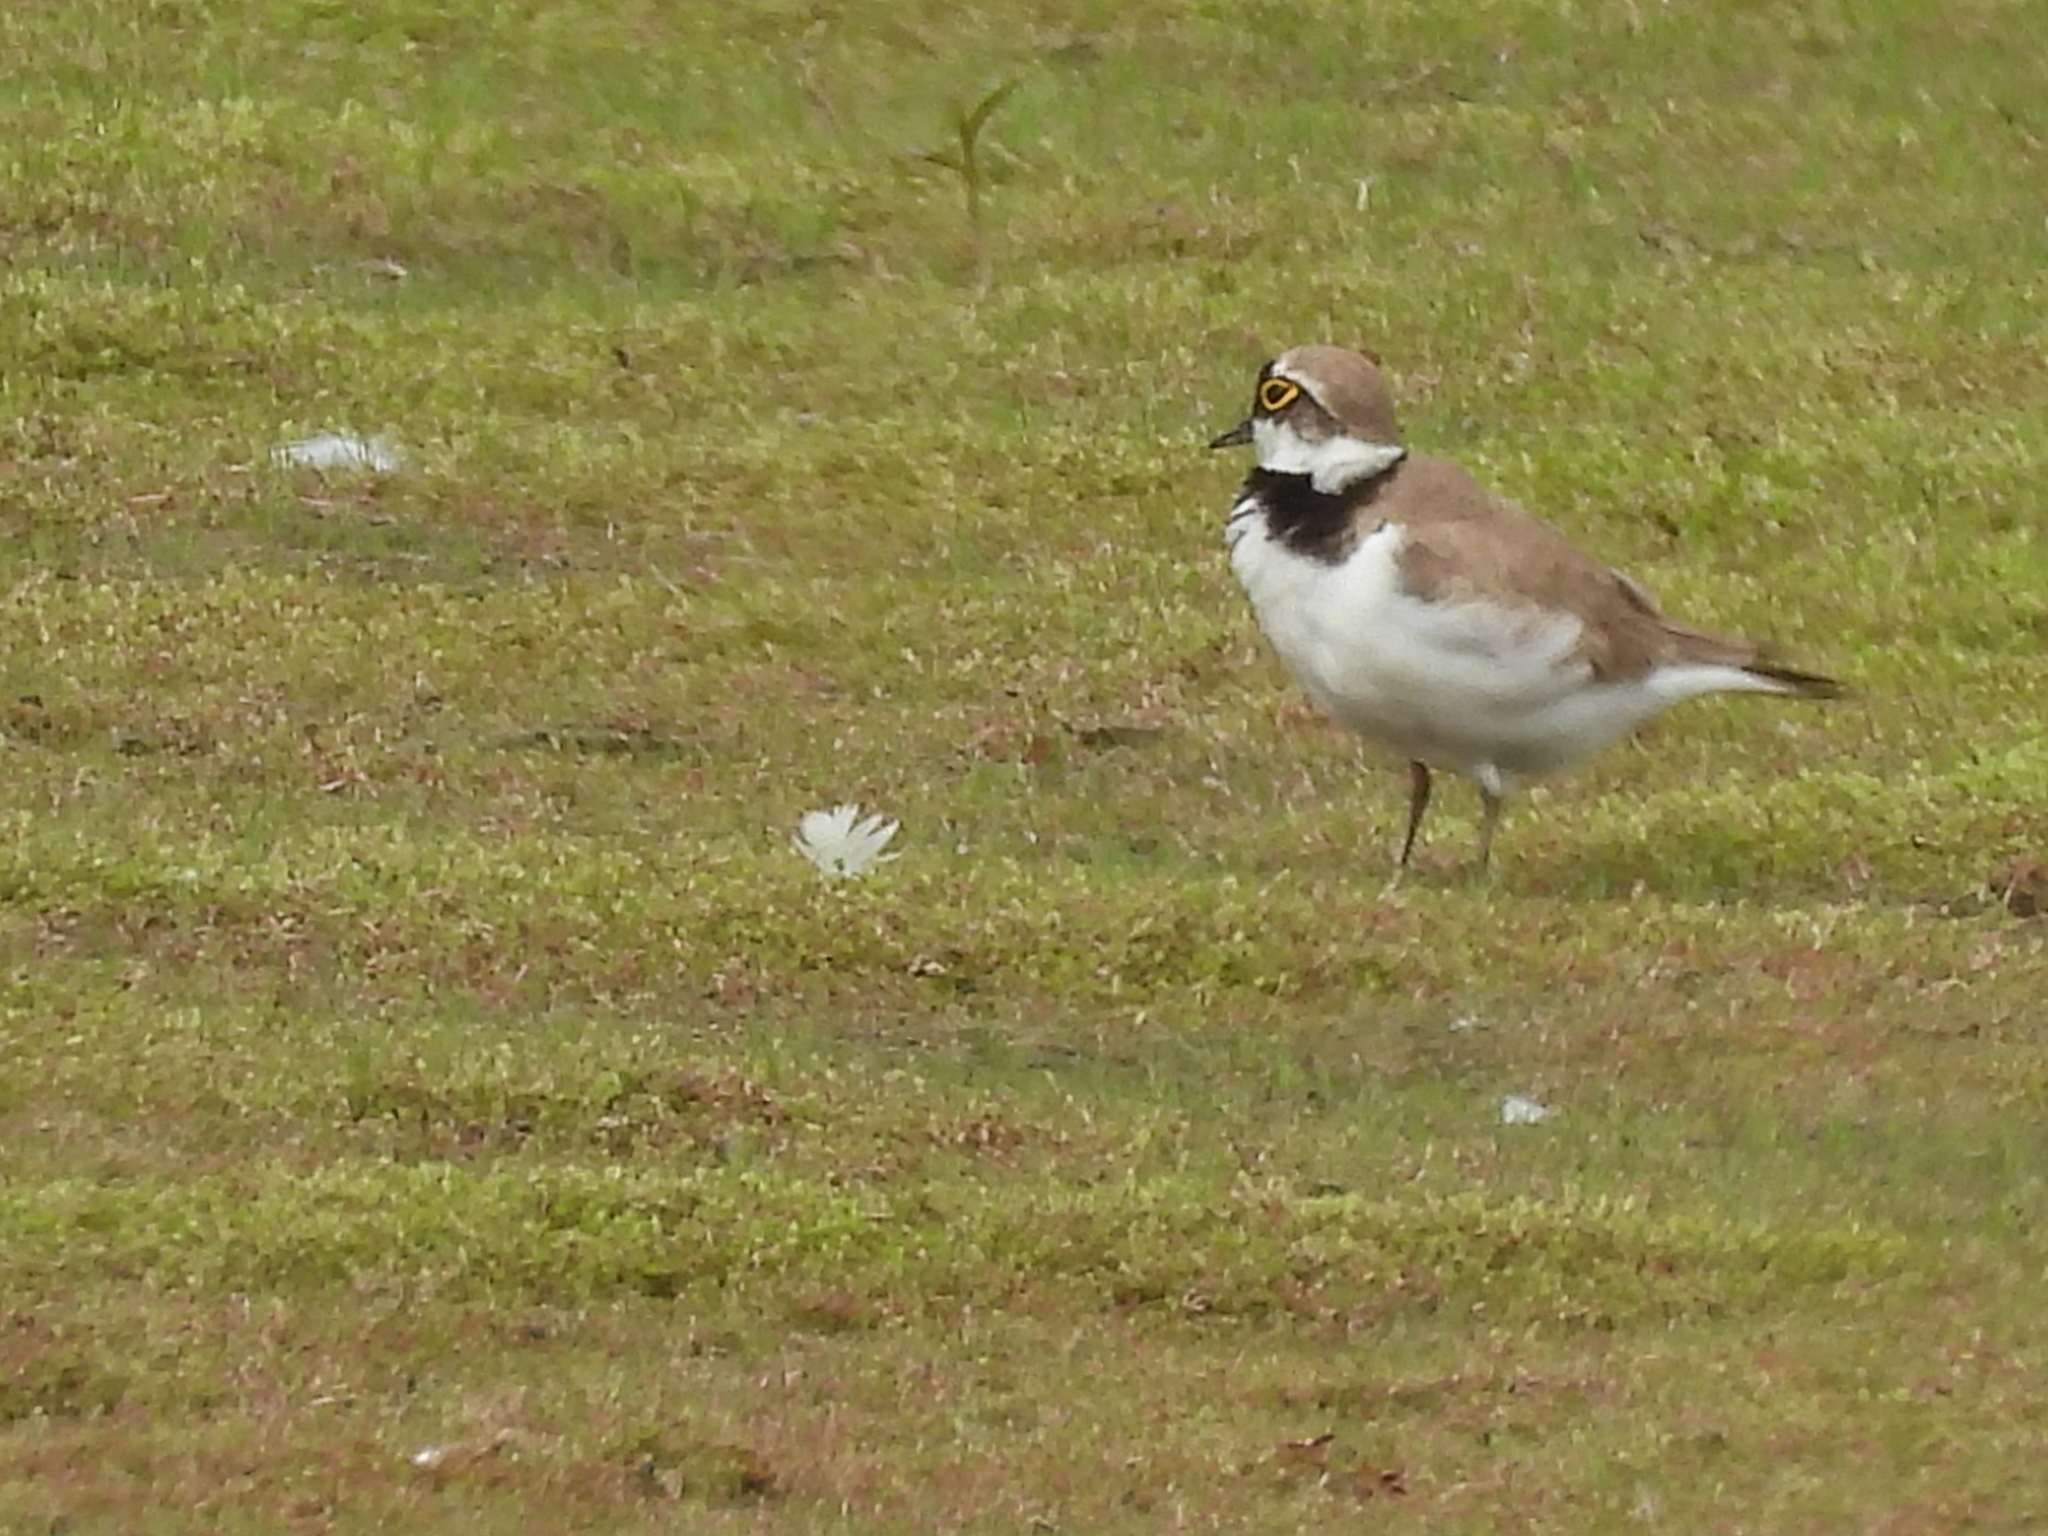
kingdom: Animalia
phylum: Chordata
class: Aves
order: Charadriiformes
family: Charadriidae
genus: Charadrius
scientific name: Charadrius dubius
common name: Little ringed plover
